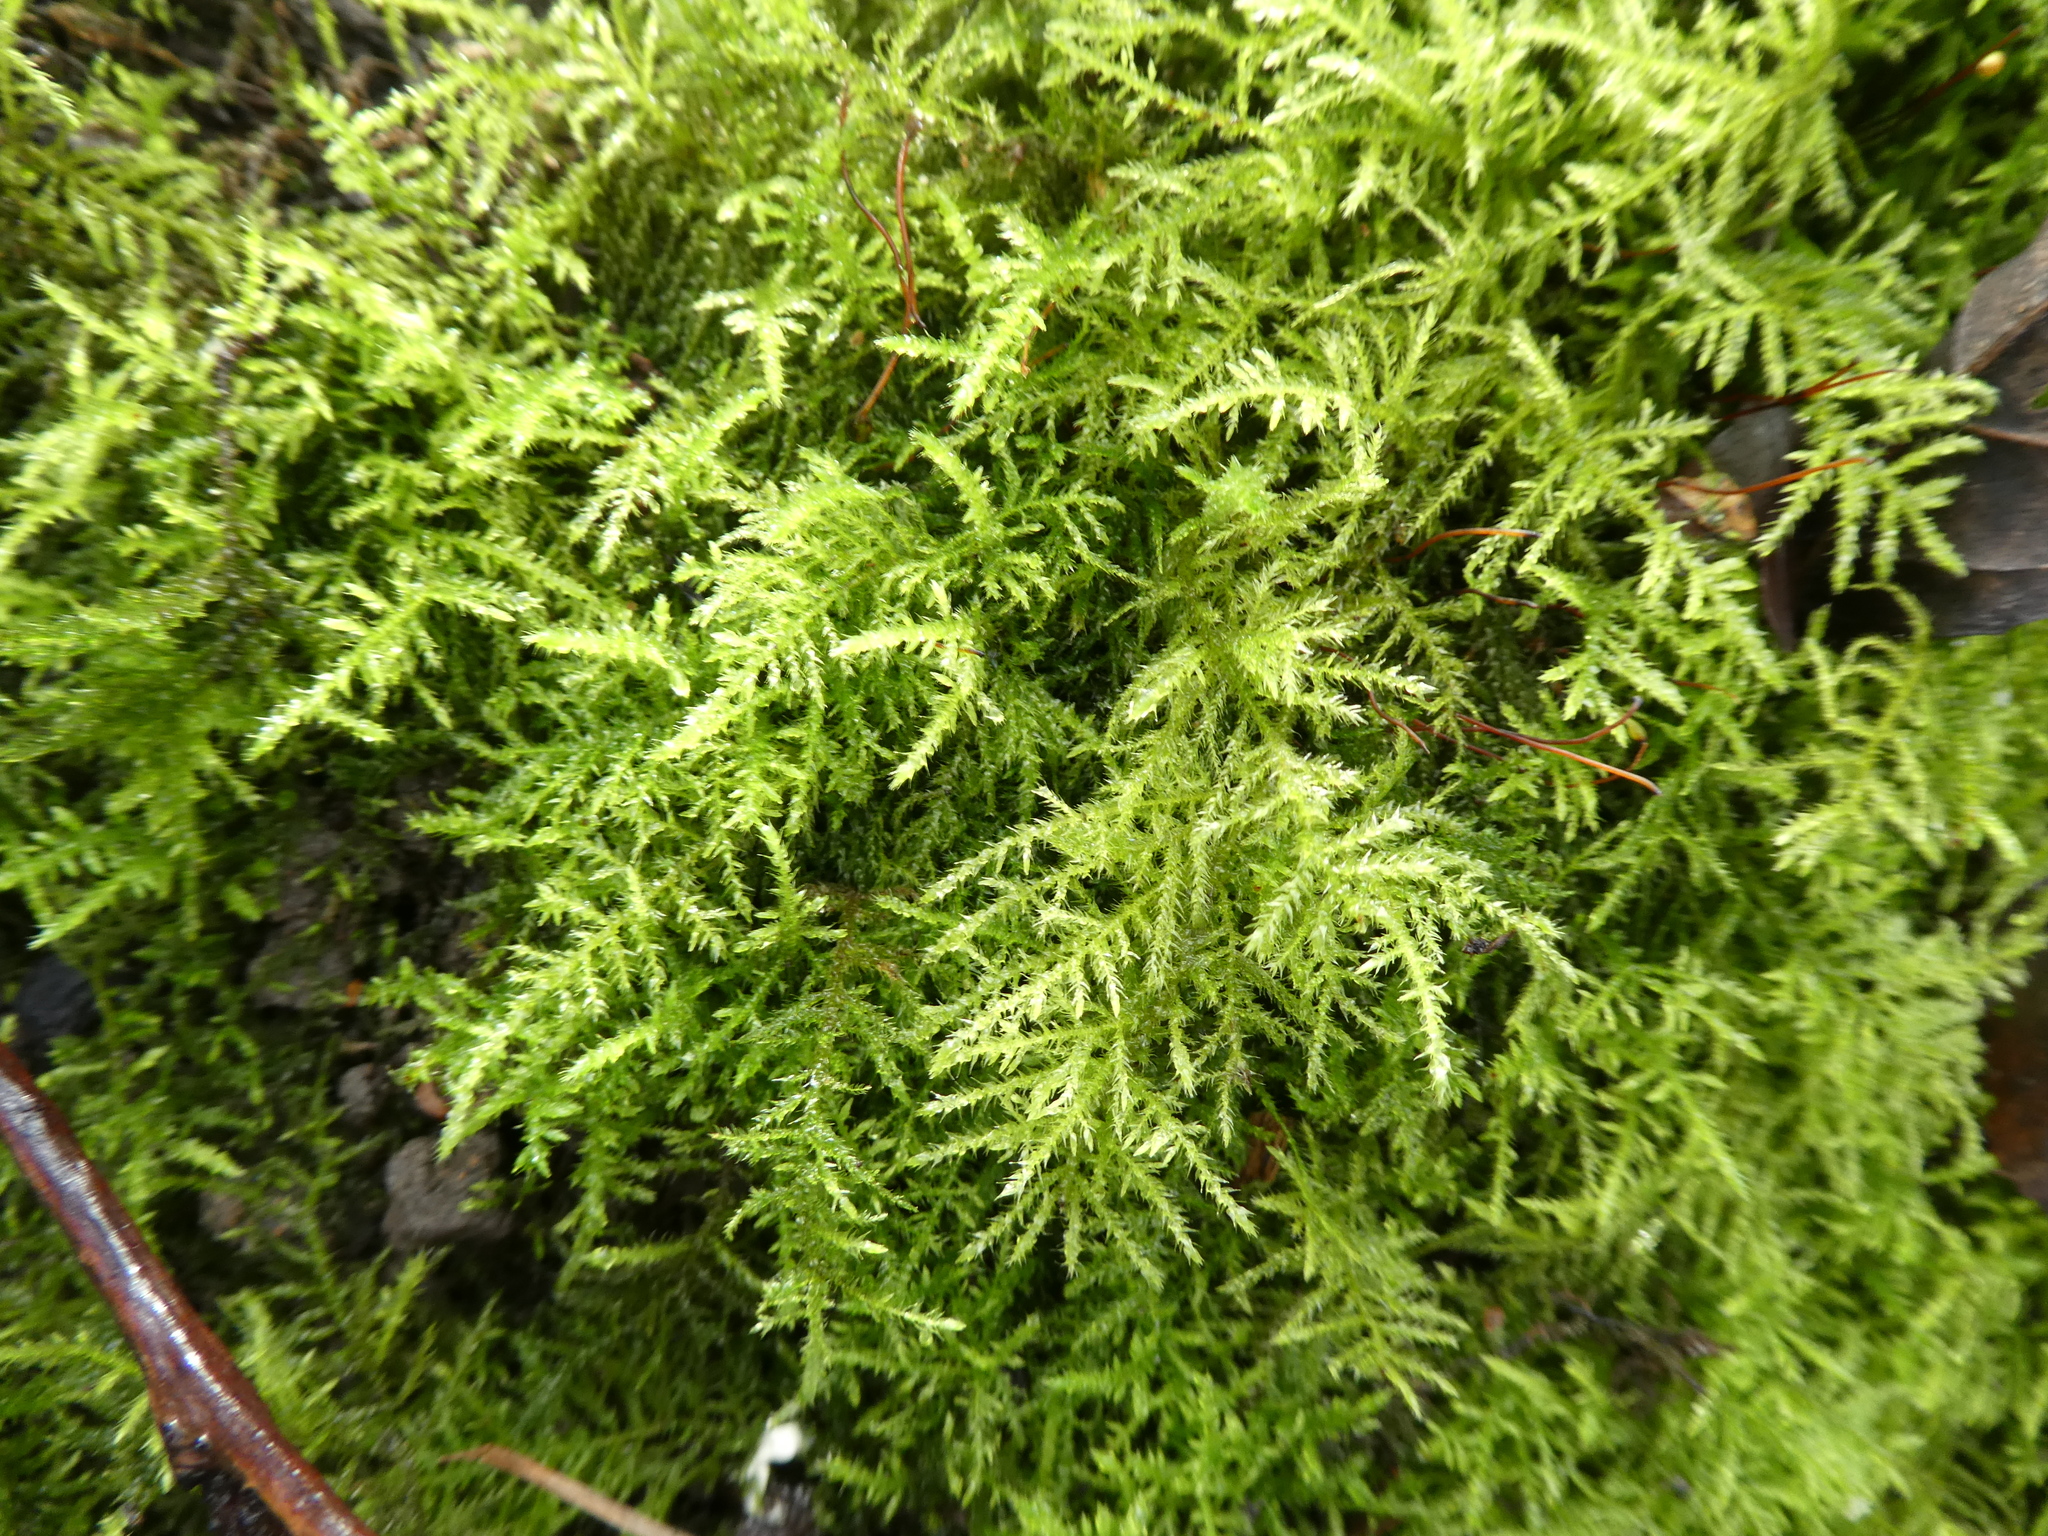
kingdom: Plantae
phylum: Bryophyta
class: Bryopsida
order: Hypnales
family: Brachytheciaceae
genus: Kindbergia
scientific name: Kindbergia praelonga
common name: Slender beaked moss
